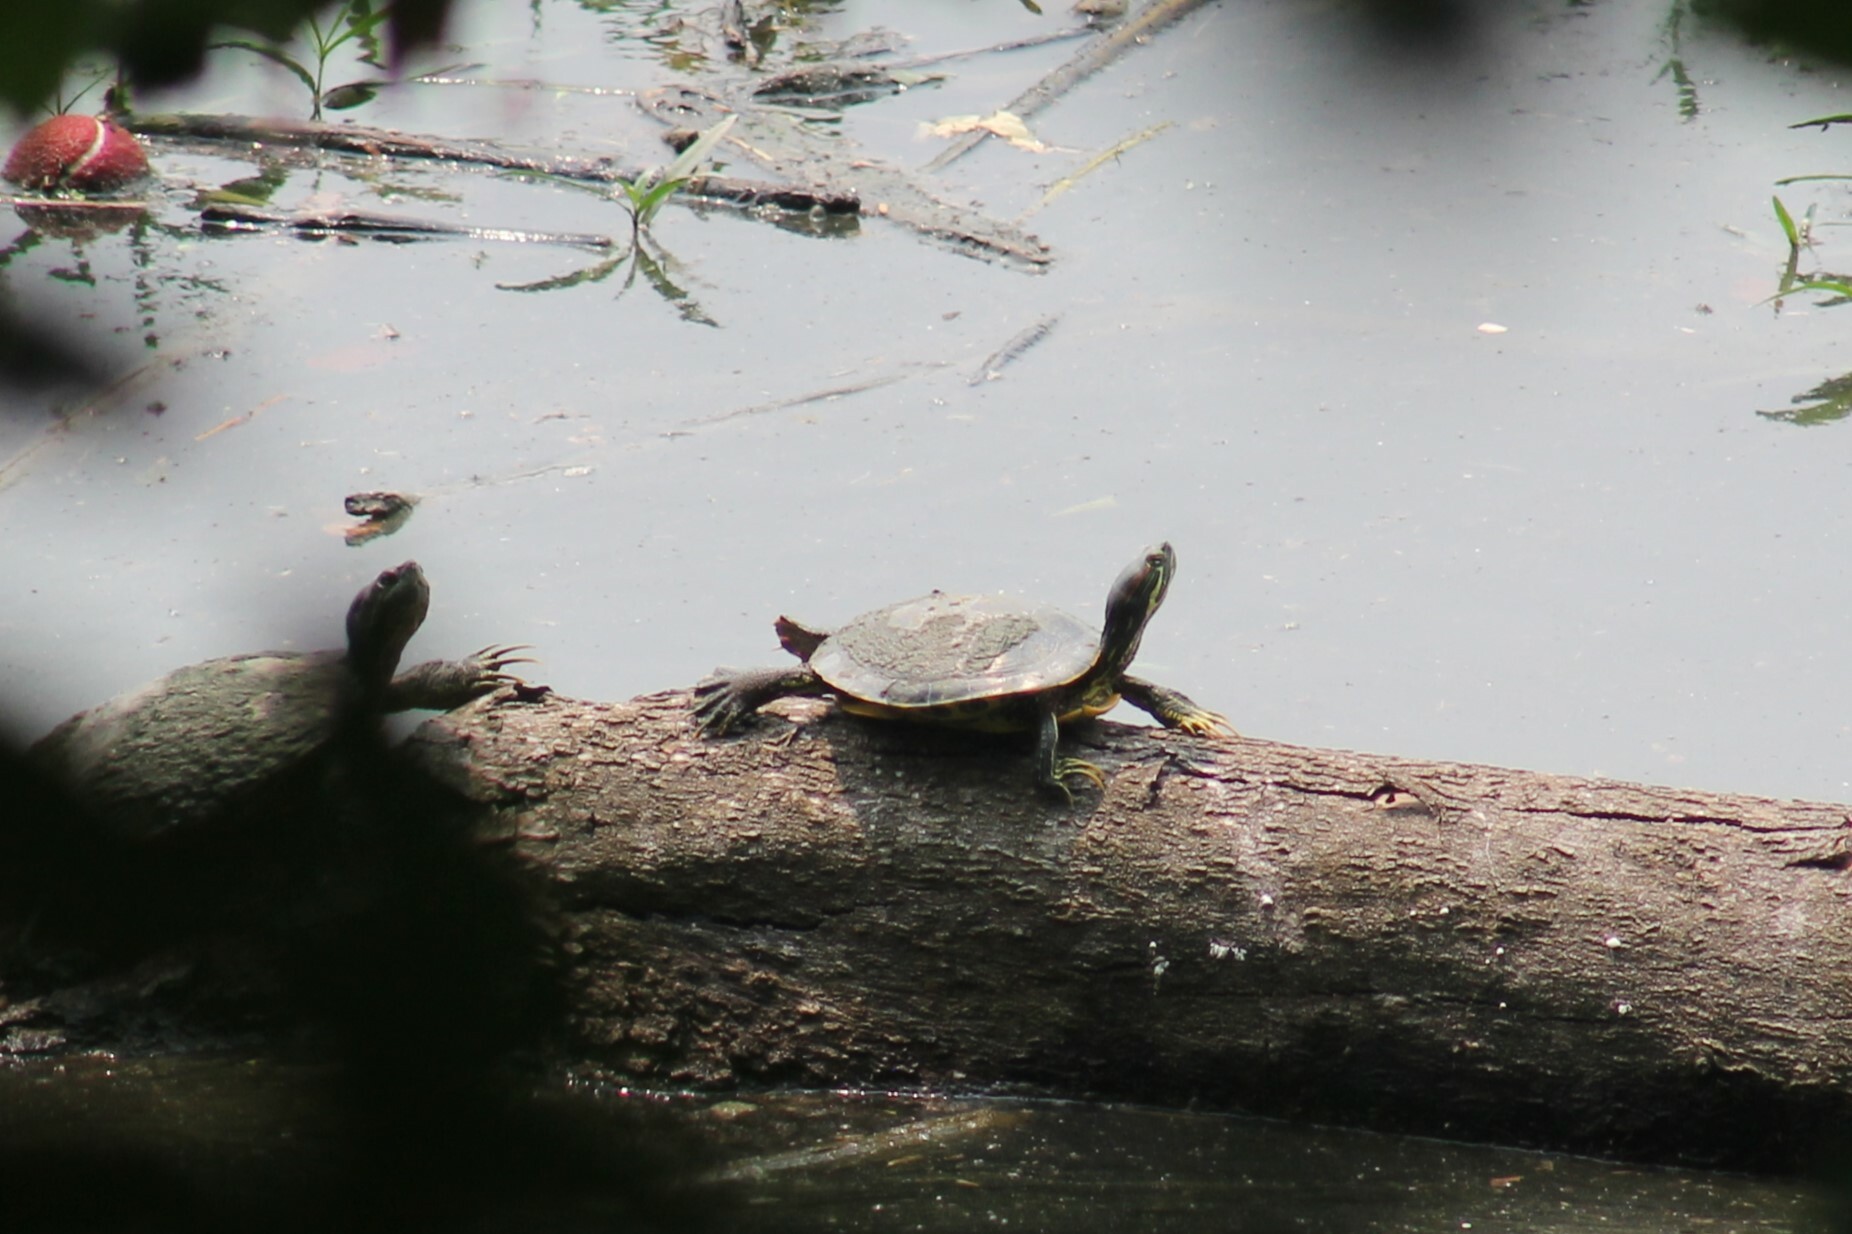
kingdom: Animalia
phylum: Chordata
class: Testudines
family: Emydidae
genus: Trachemys
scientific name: Trachemys scripta
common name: Slider
